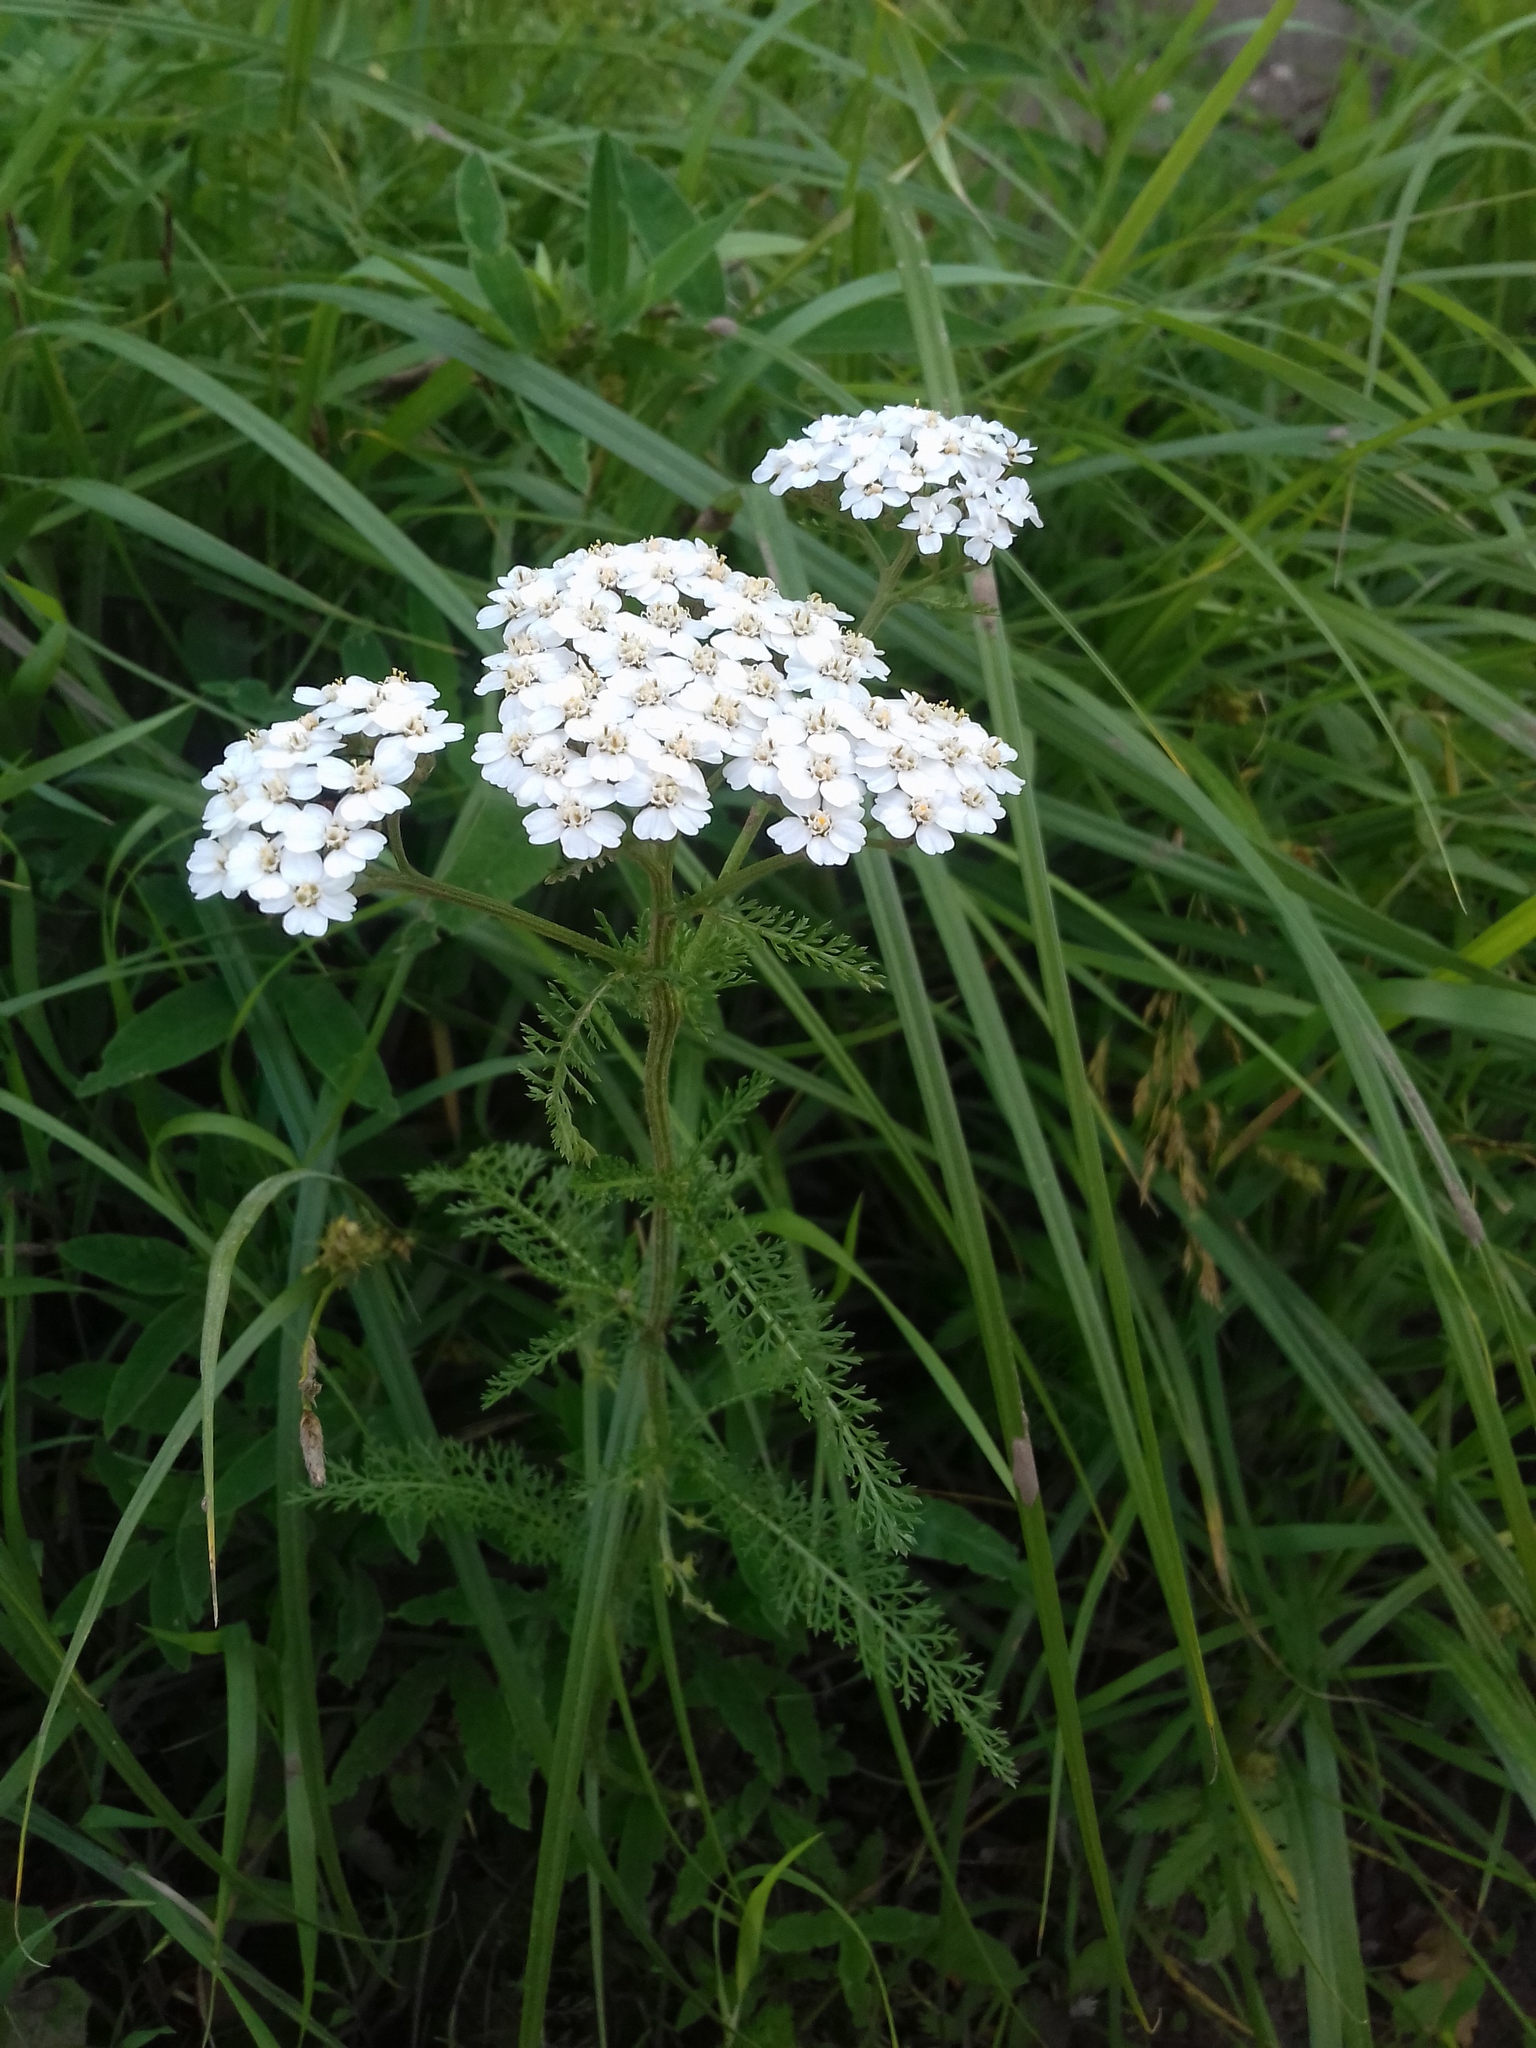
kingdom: Plantae
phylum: Tracheophyta
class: Magnoliopsida
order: Asterales
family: Asteraceae
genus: Achillea
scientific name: Achillea millefolium
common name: Yarrow
